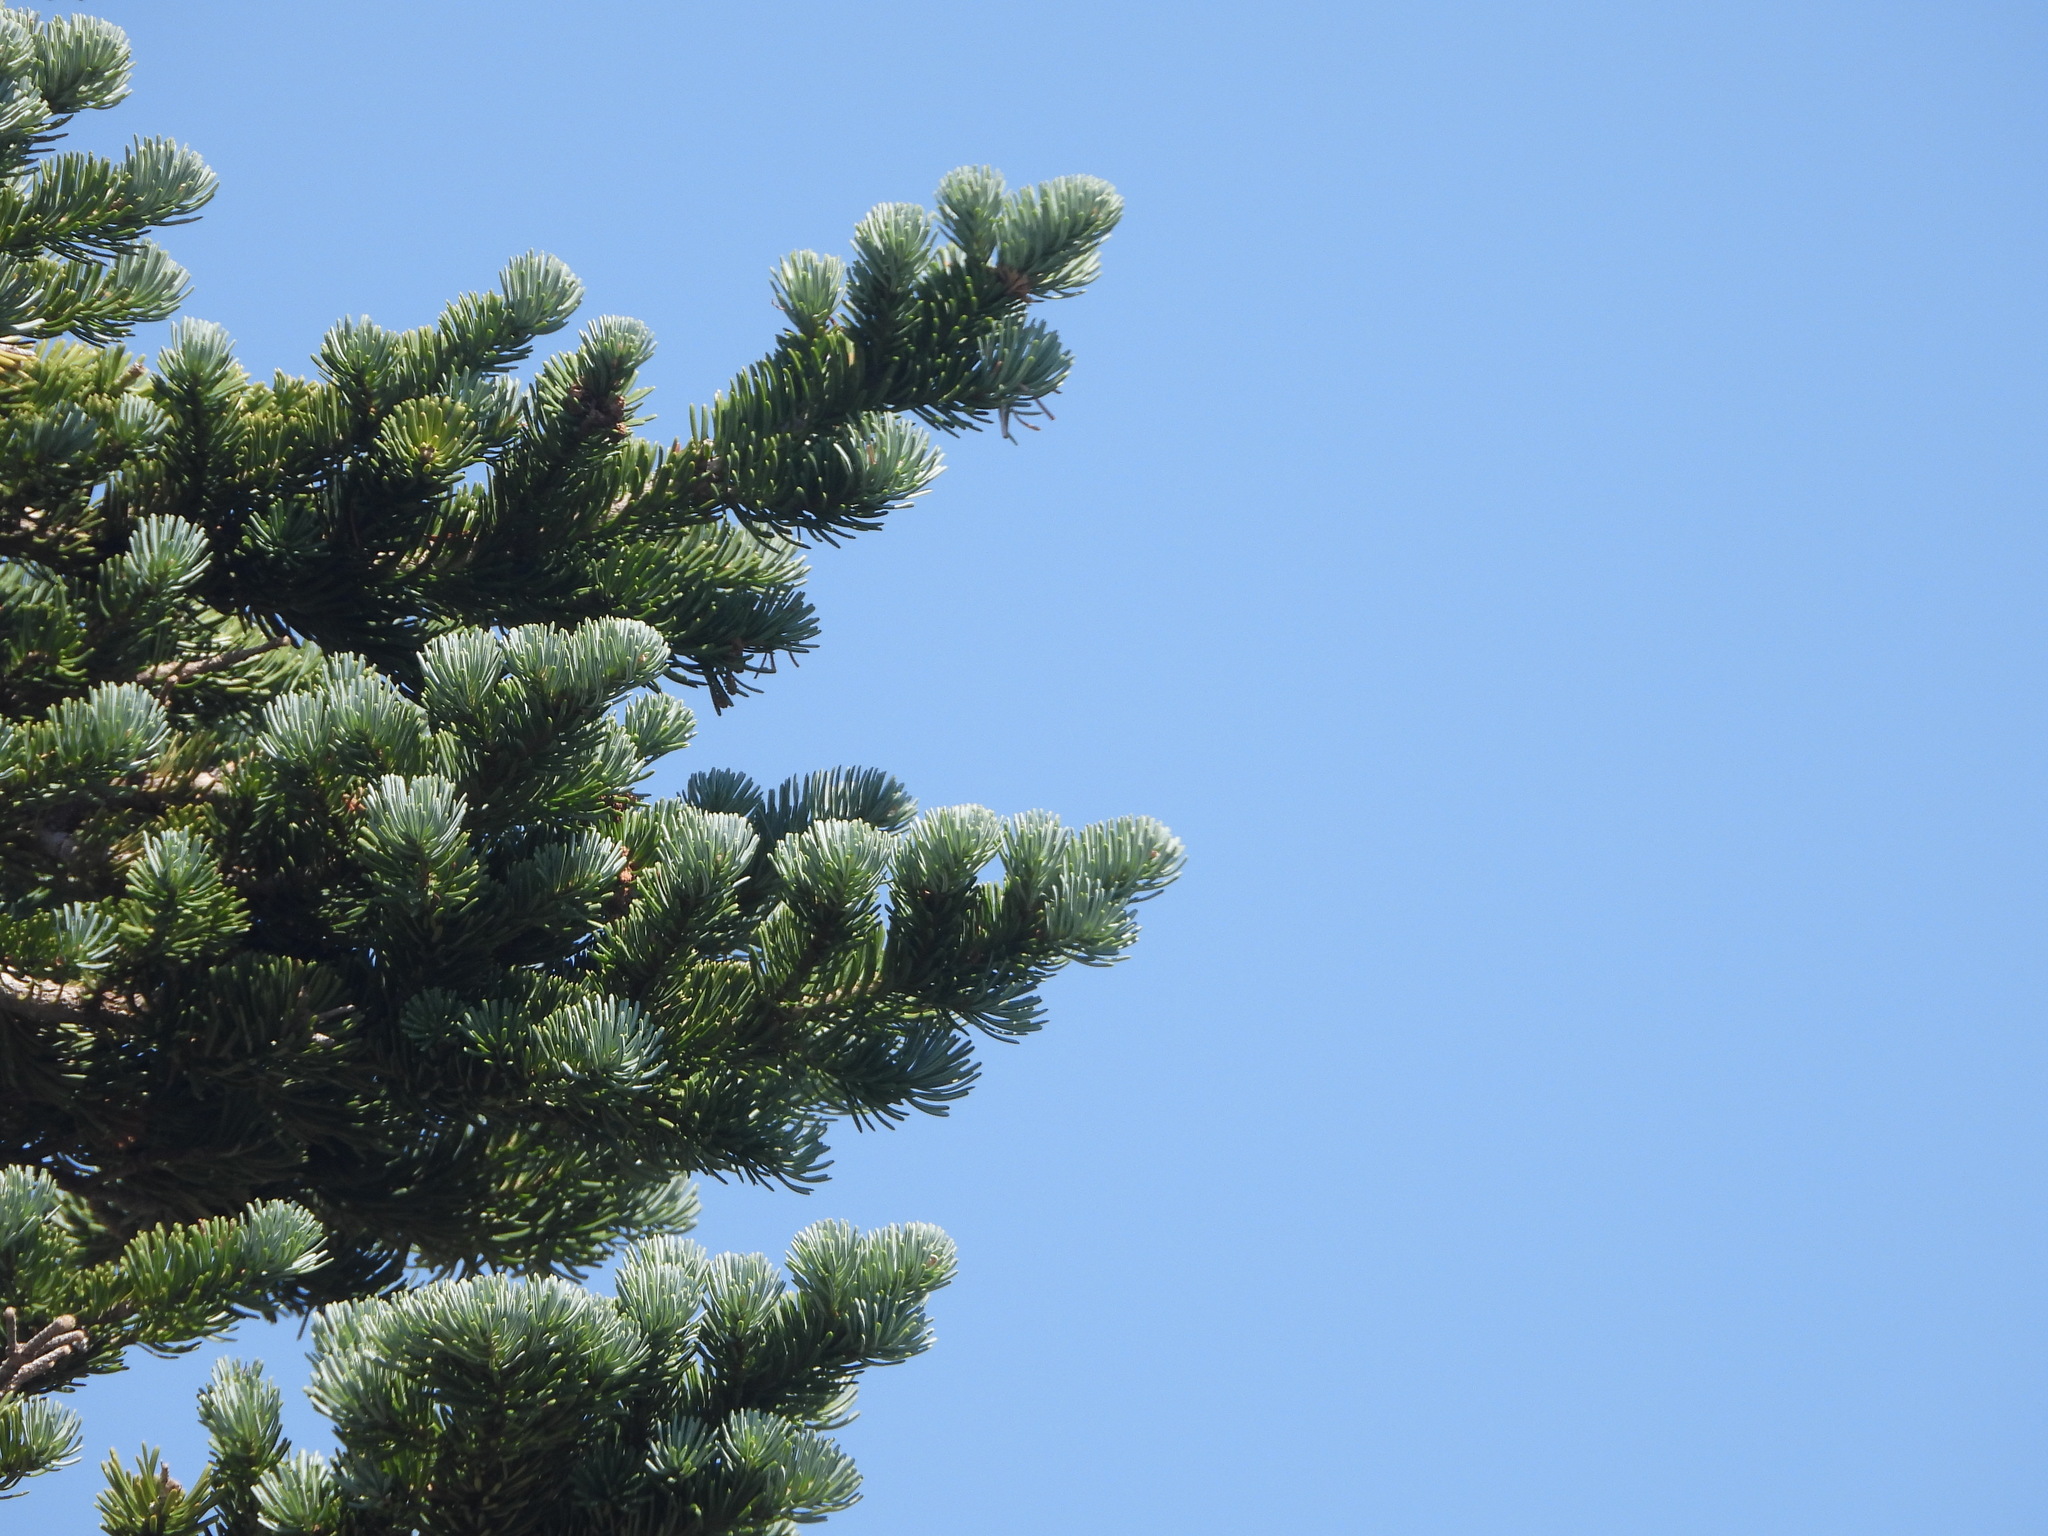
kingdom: Plantae
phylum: Tracheophyta
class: Pinopsida
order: Pinales
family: Pinaceae
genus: Abies
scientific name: Abies lasiocarpa
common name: Subalpine fir
